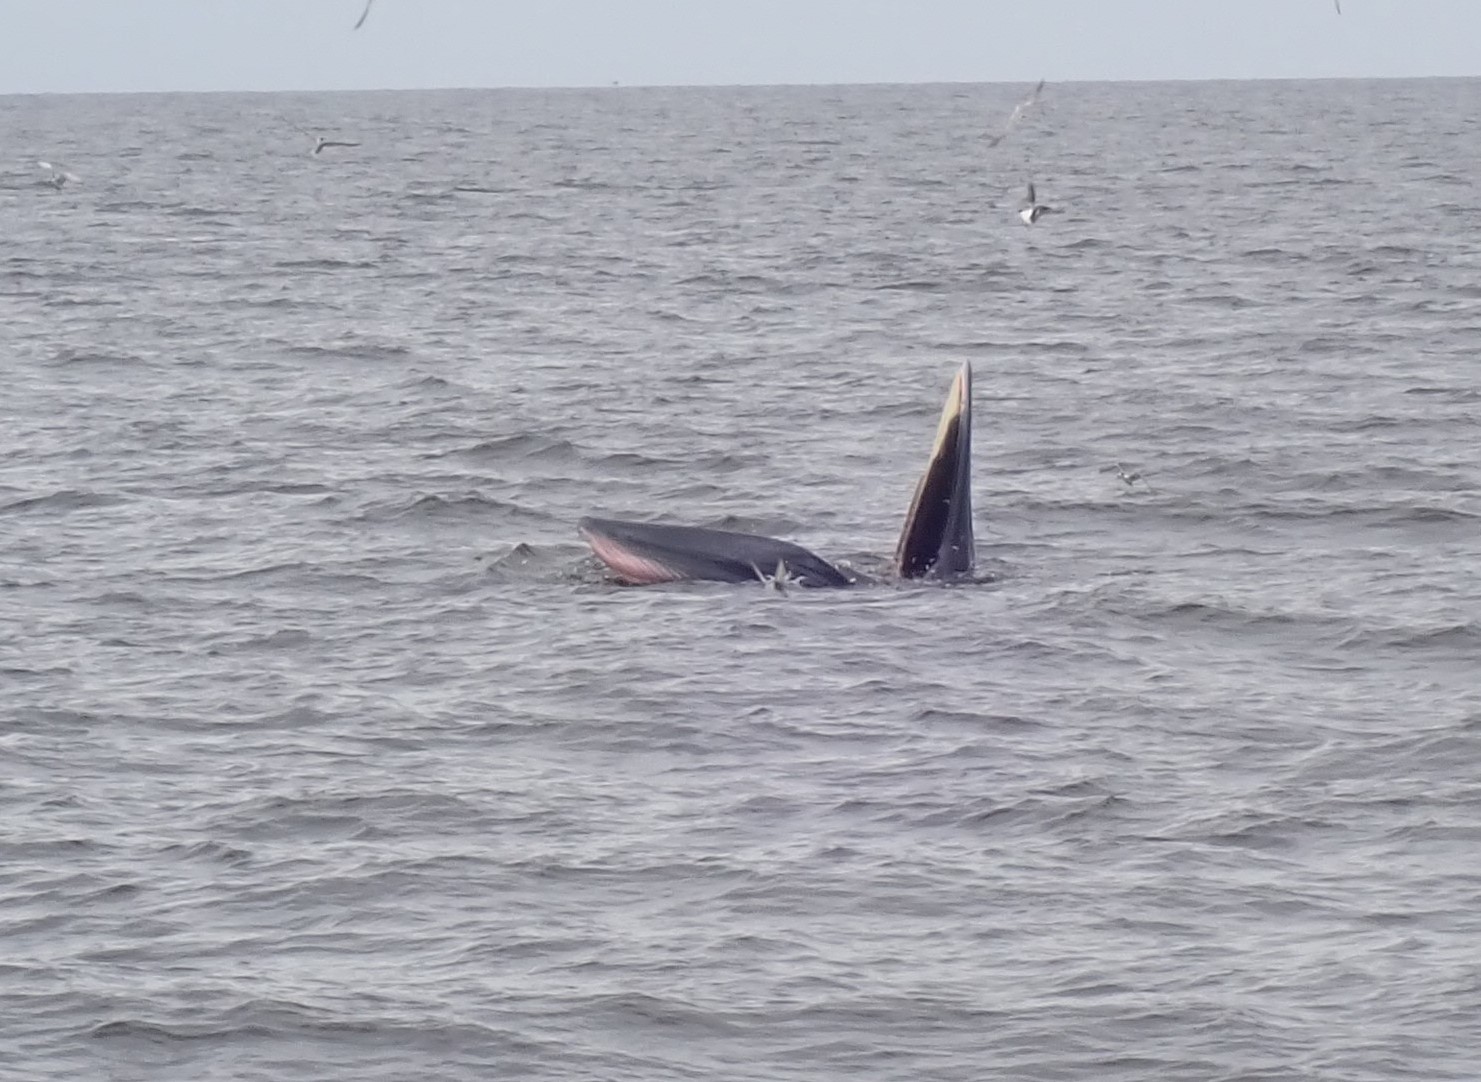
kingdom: Animalia
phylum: Chordata
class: Mammalia
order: Cetacea
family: Balaenopteridae
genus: Balaenoptera
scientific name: Balaenoptera edeni
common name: Bryde's whale
